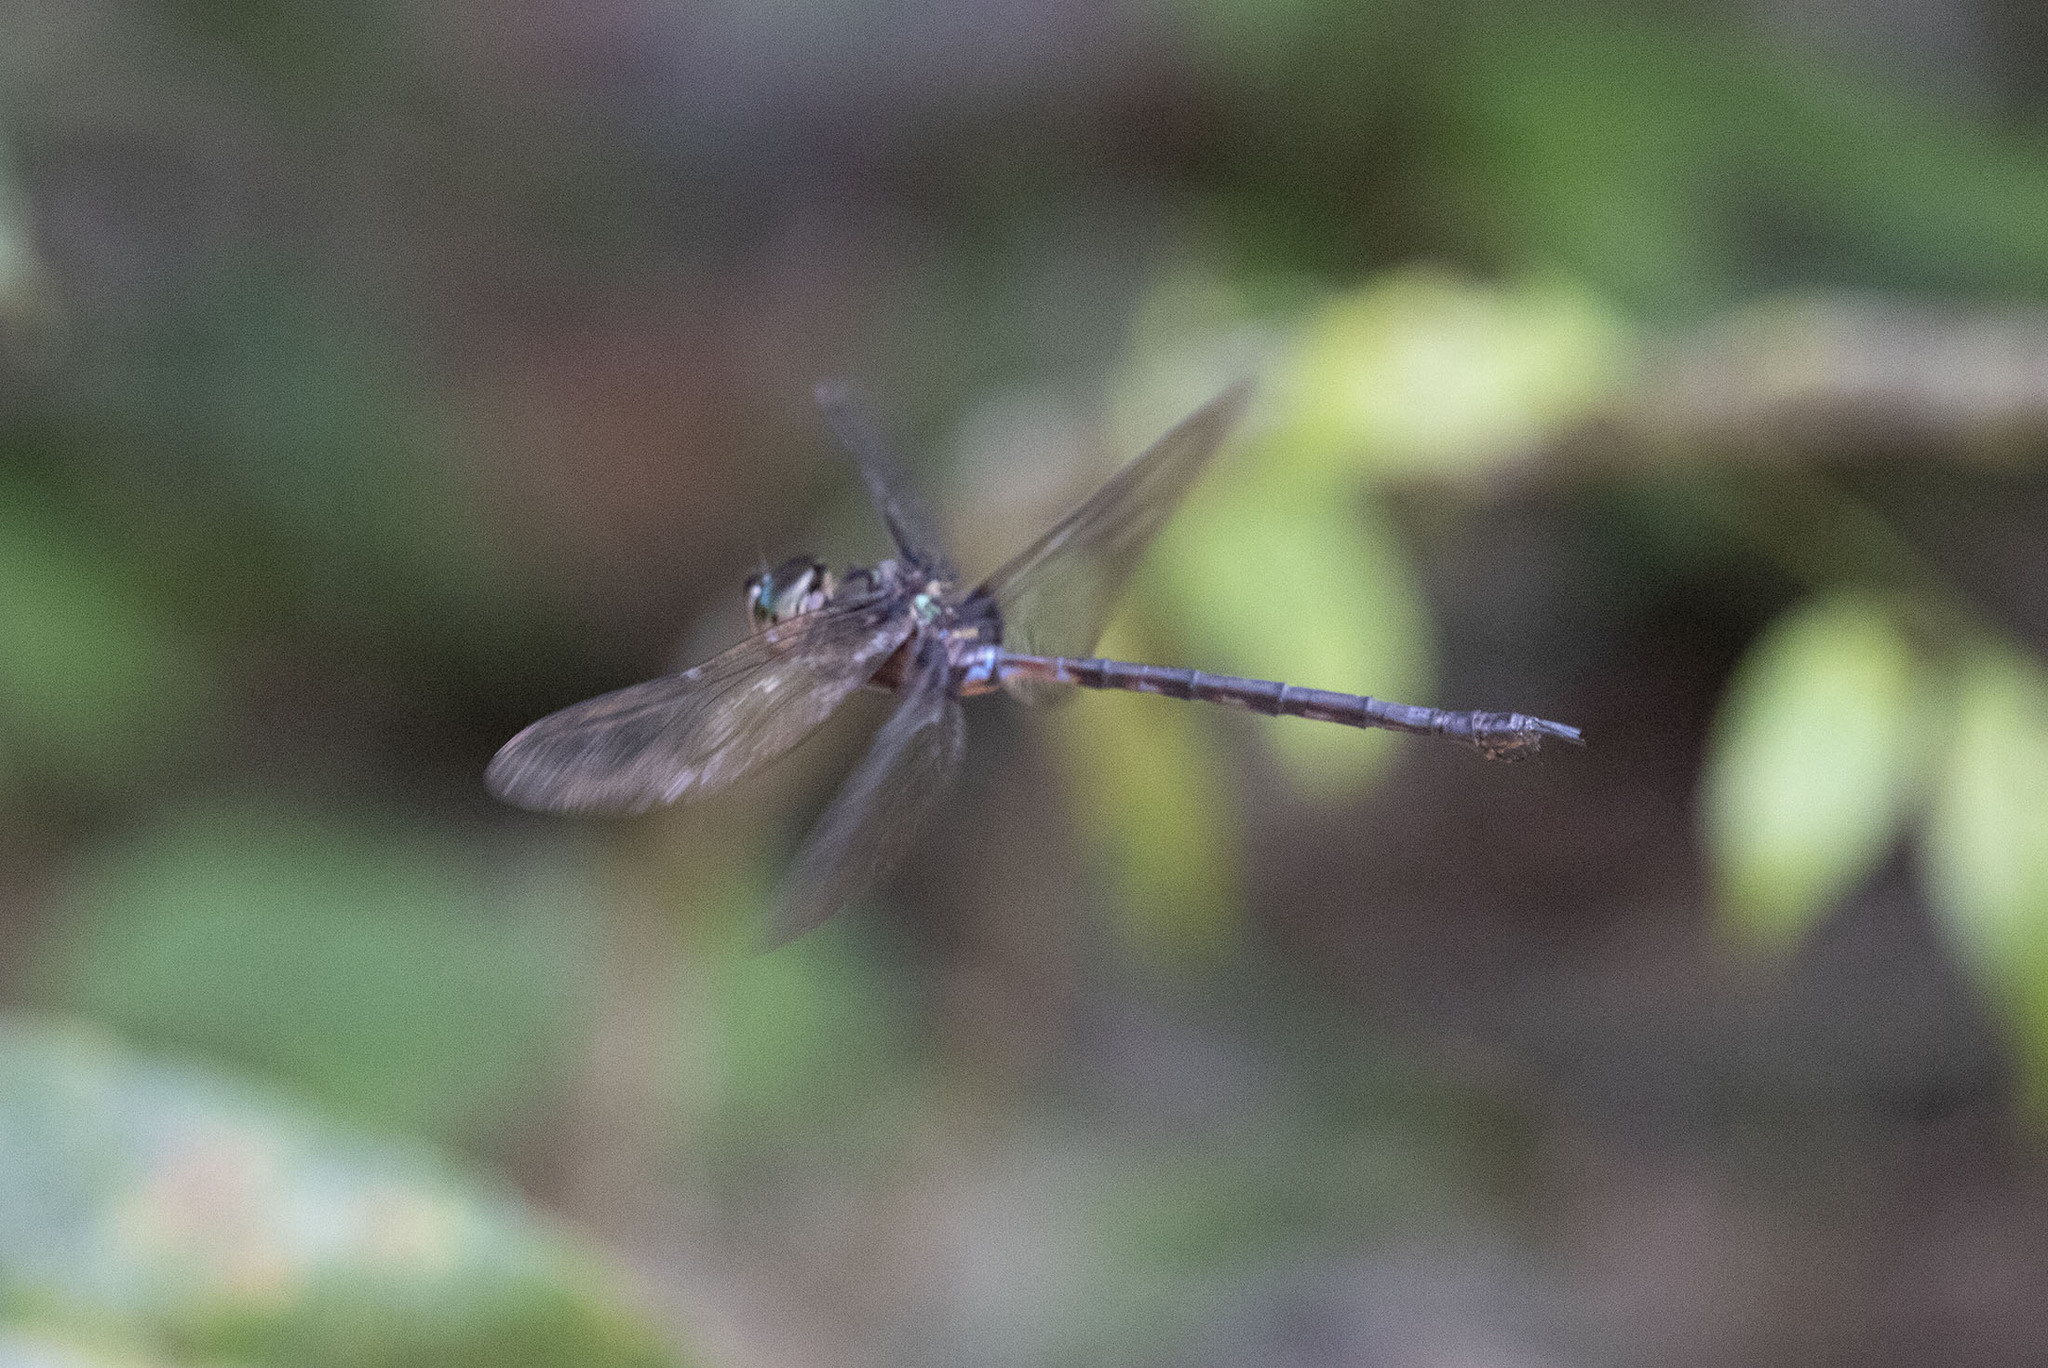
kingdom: Animalia
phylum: Arthropoda
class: Insecta
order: Odonata
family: Aeshnidae
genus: Gynacantha
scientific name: Gynacantha membranalis
